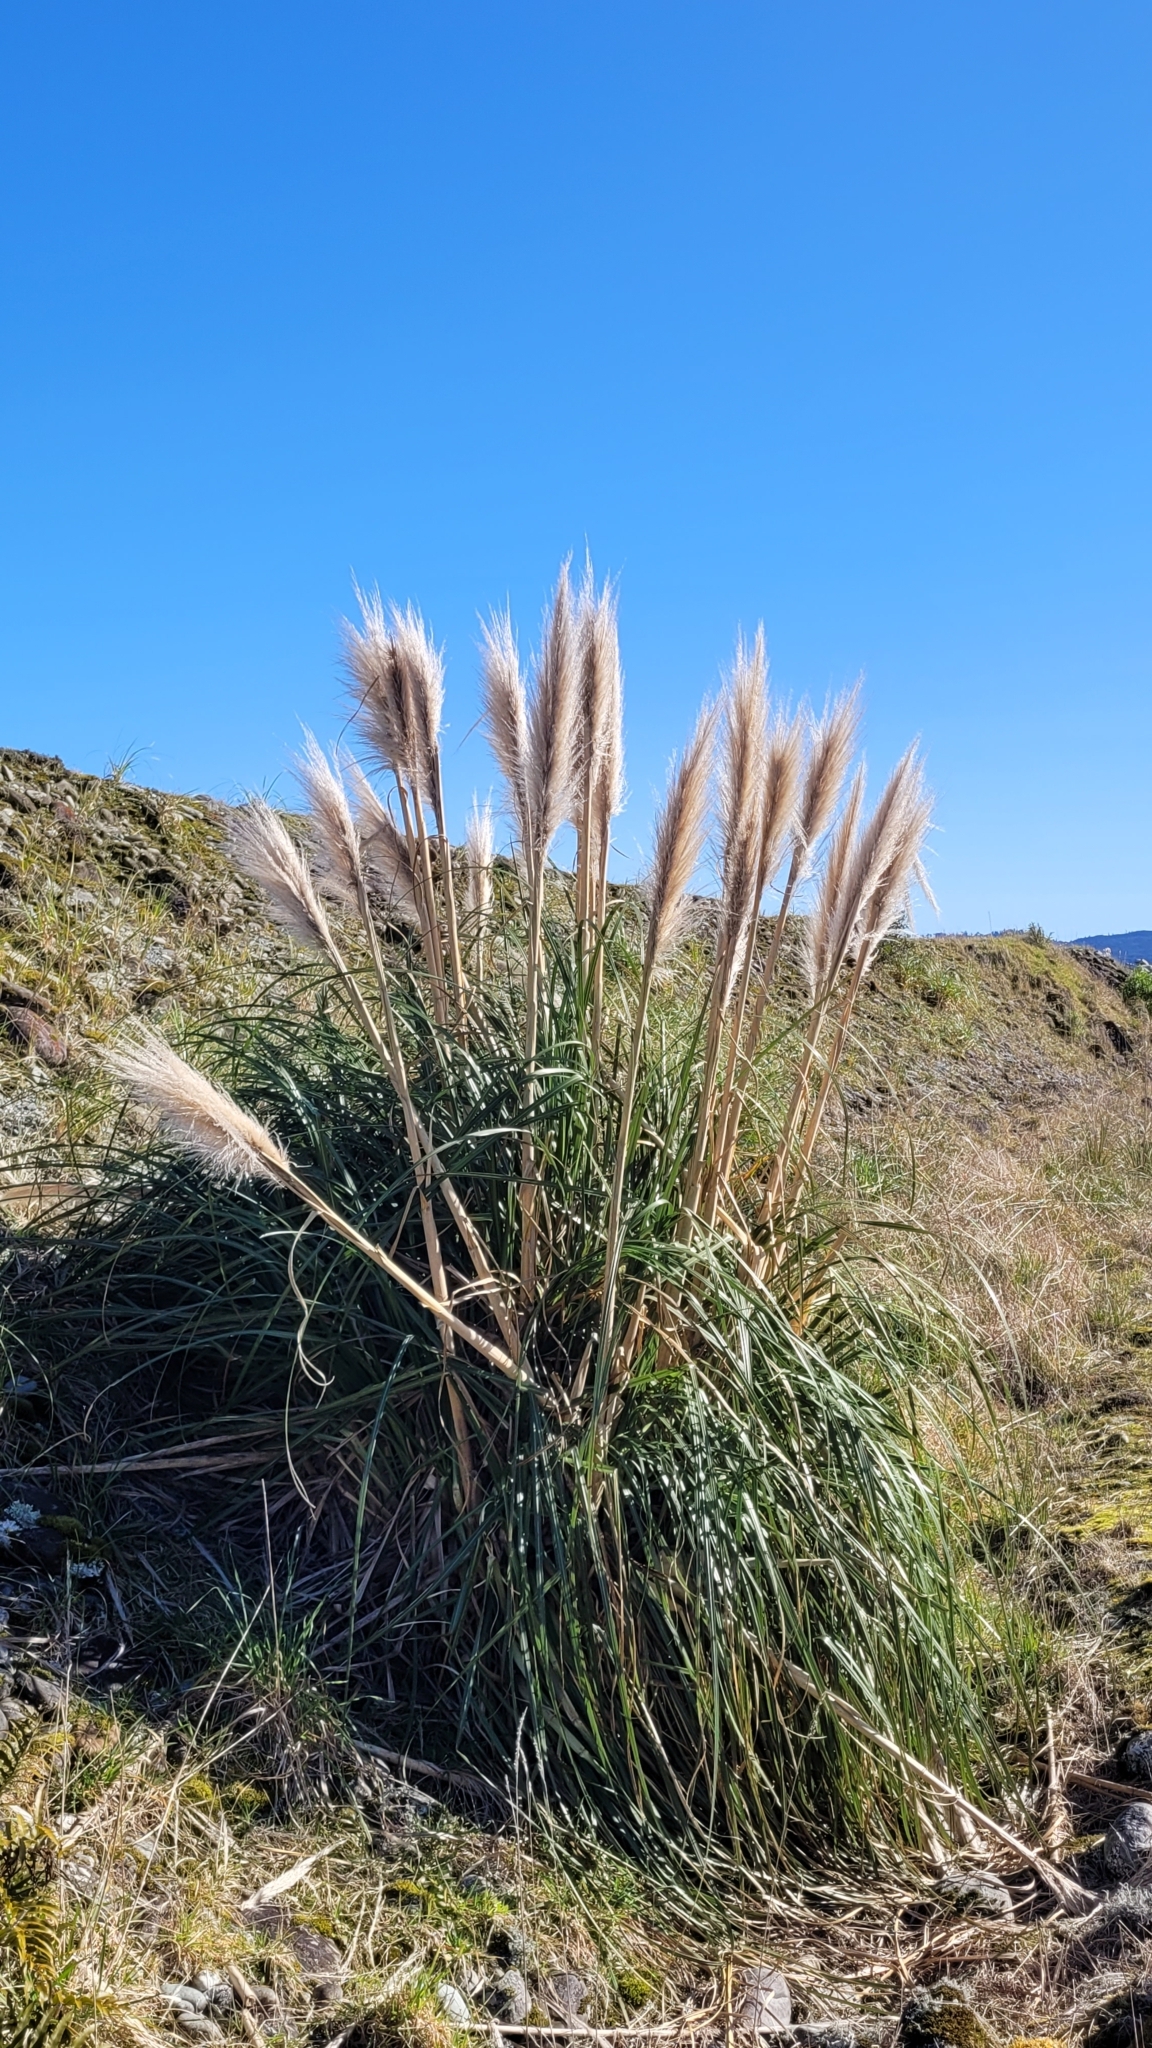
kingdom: Plantae
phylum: Tracheophyta
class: Liliopsida
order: Poales
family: Poaceae
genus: Cortaderia
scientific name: Cortaderia jubata
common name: Purple pampas grass
